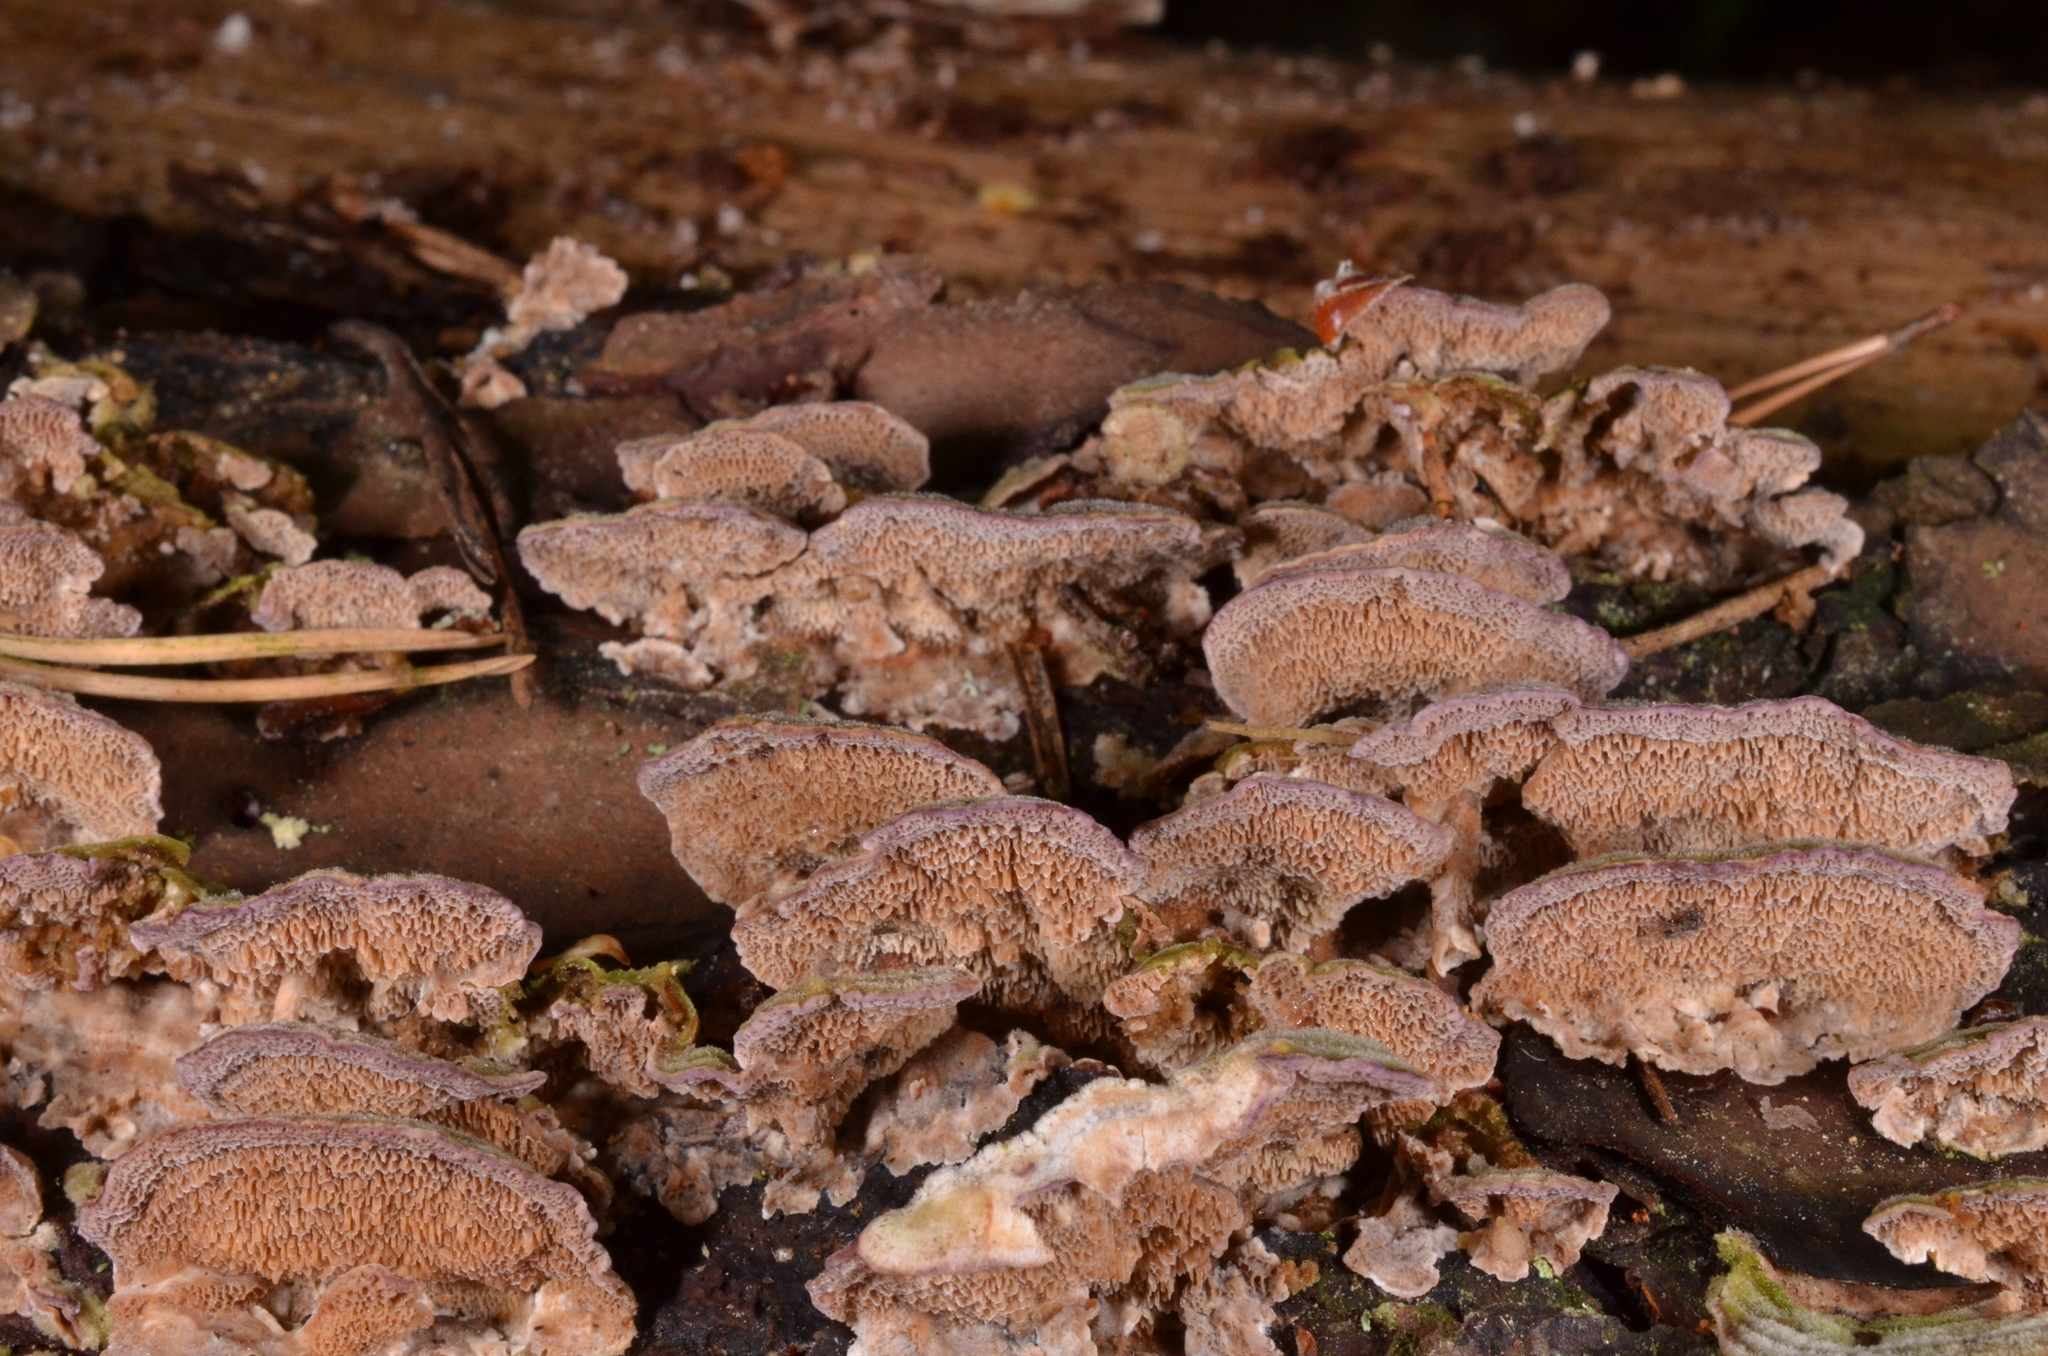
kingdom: Fungi
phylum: Basidiomycota
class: Agaricomycetes
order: Hymenochaetales
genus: Trichaptum
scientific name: Trichaptum abietinum
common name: Purplepore bracket
